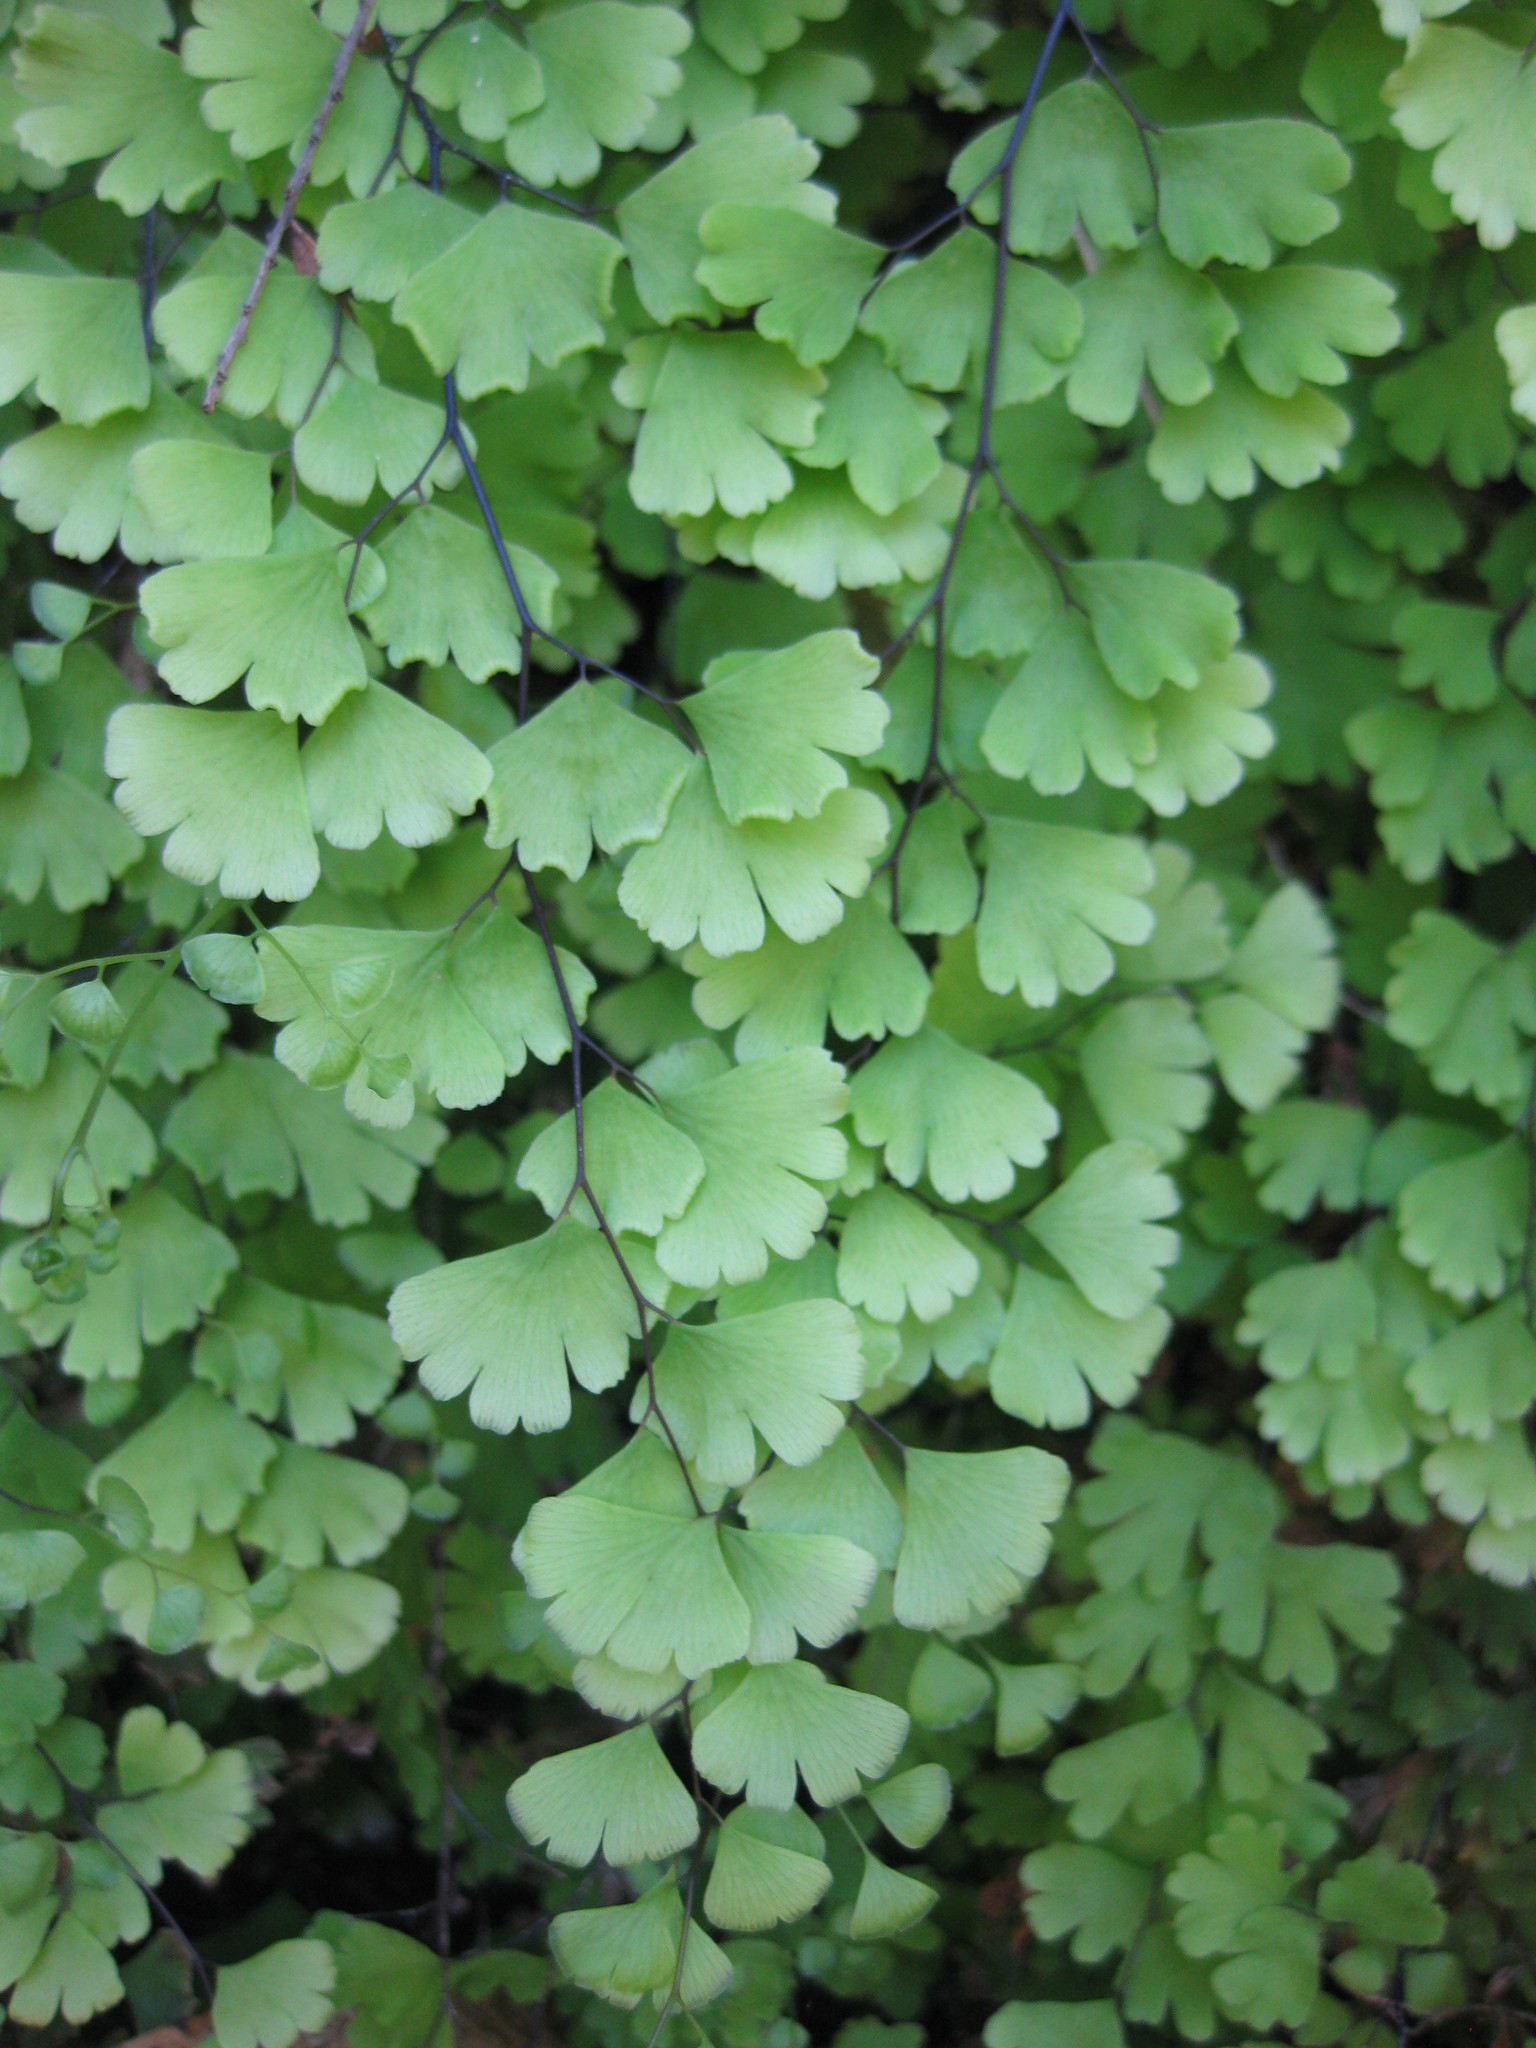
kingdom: Plantae
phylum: Tracheophyta
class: Polypodiopsida
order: Polypodiales
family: Pteridaceae
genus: Adiantum
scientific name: Adiantum capillus-veneris
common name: Maidenhair fern
